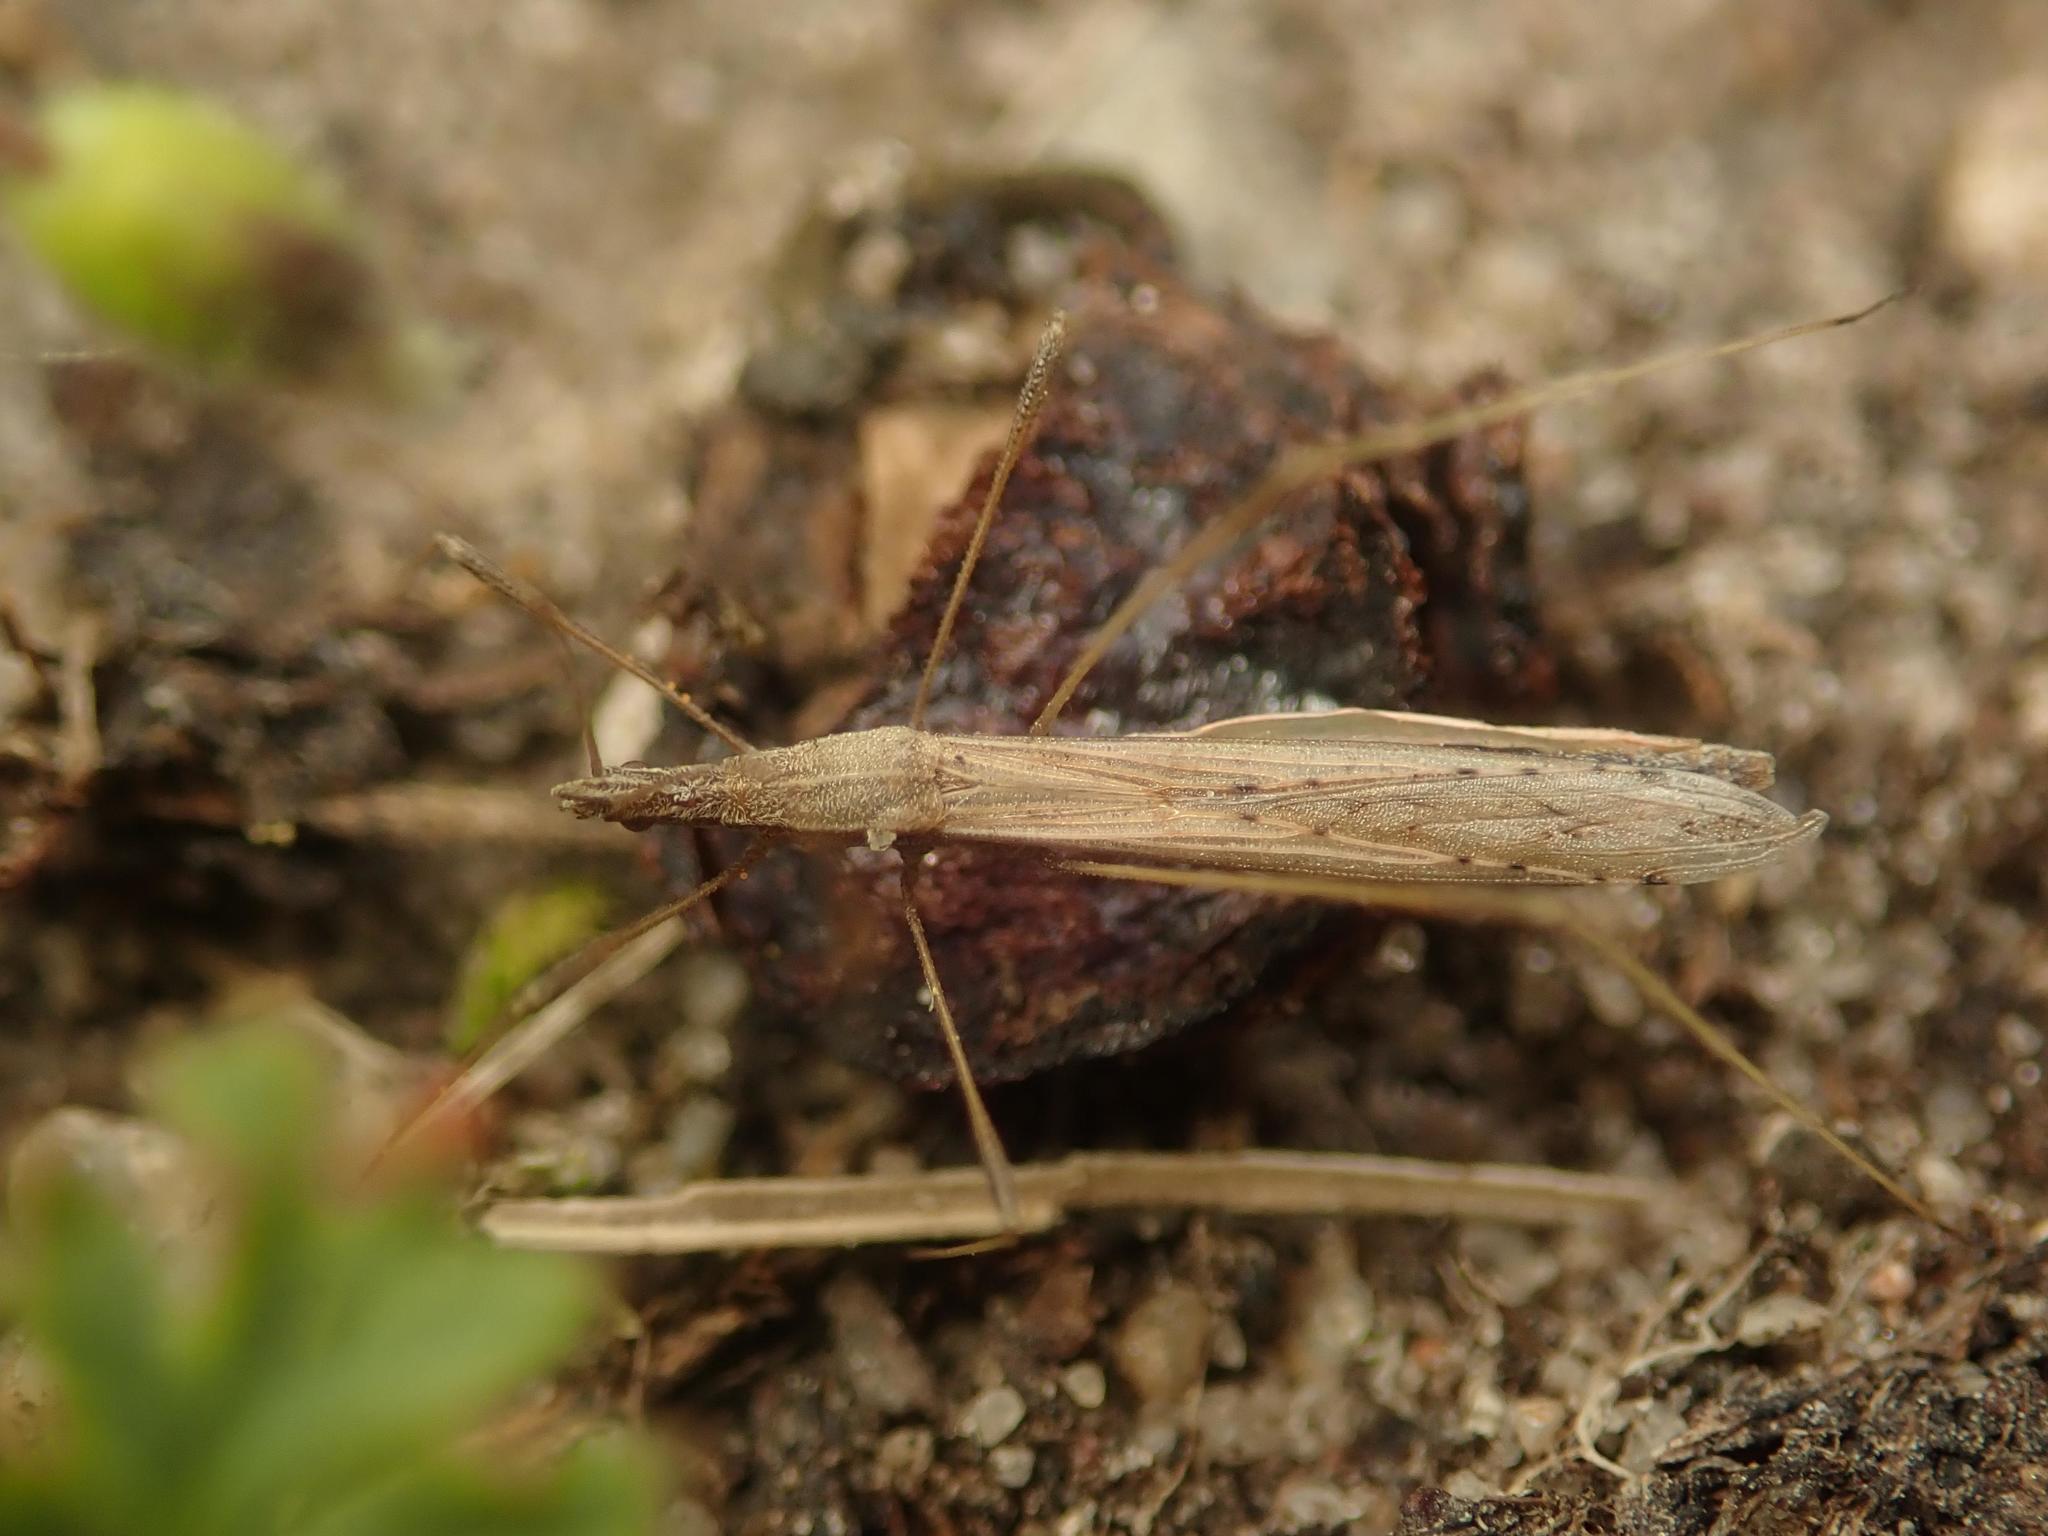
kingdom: Animalia
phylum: Arthropoda
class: Insecta
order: Hemiptera
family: Berytidae
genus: Neides
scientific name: Neides tipularius
